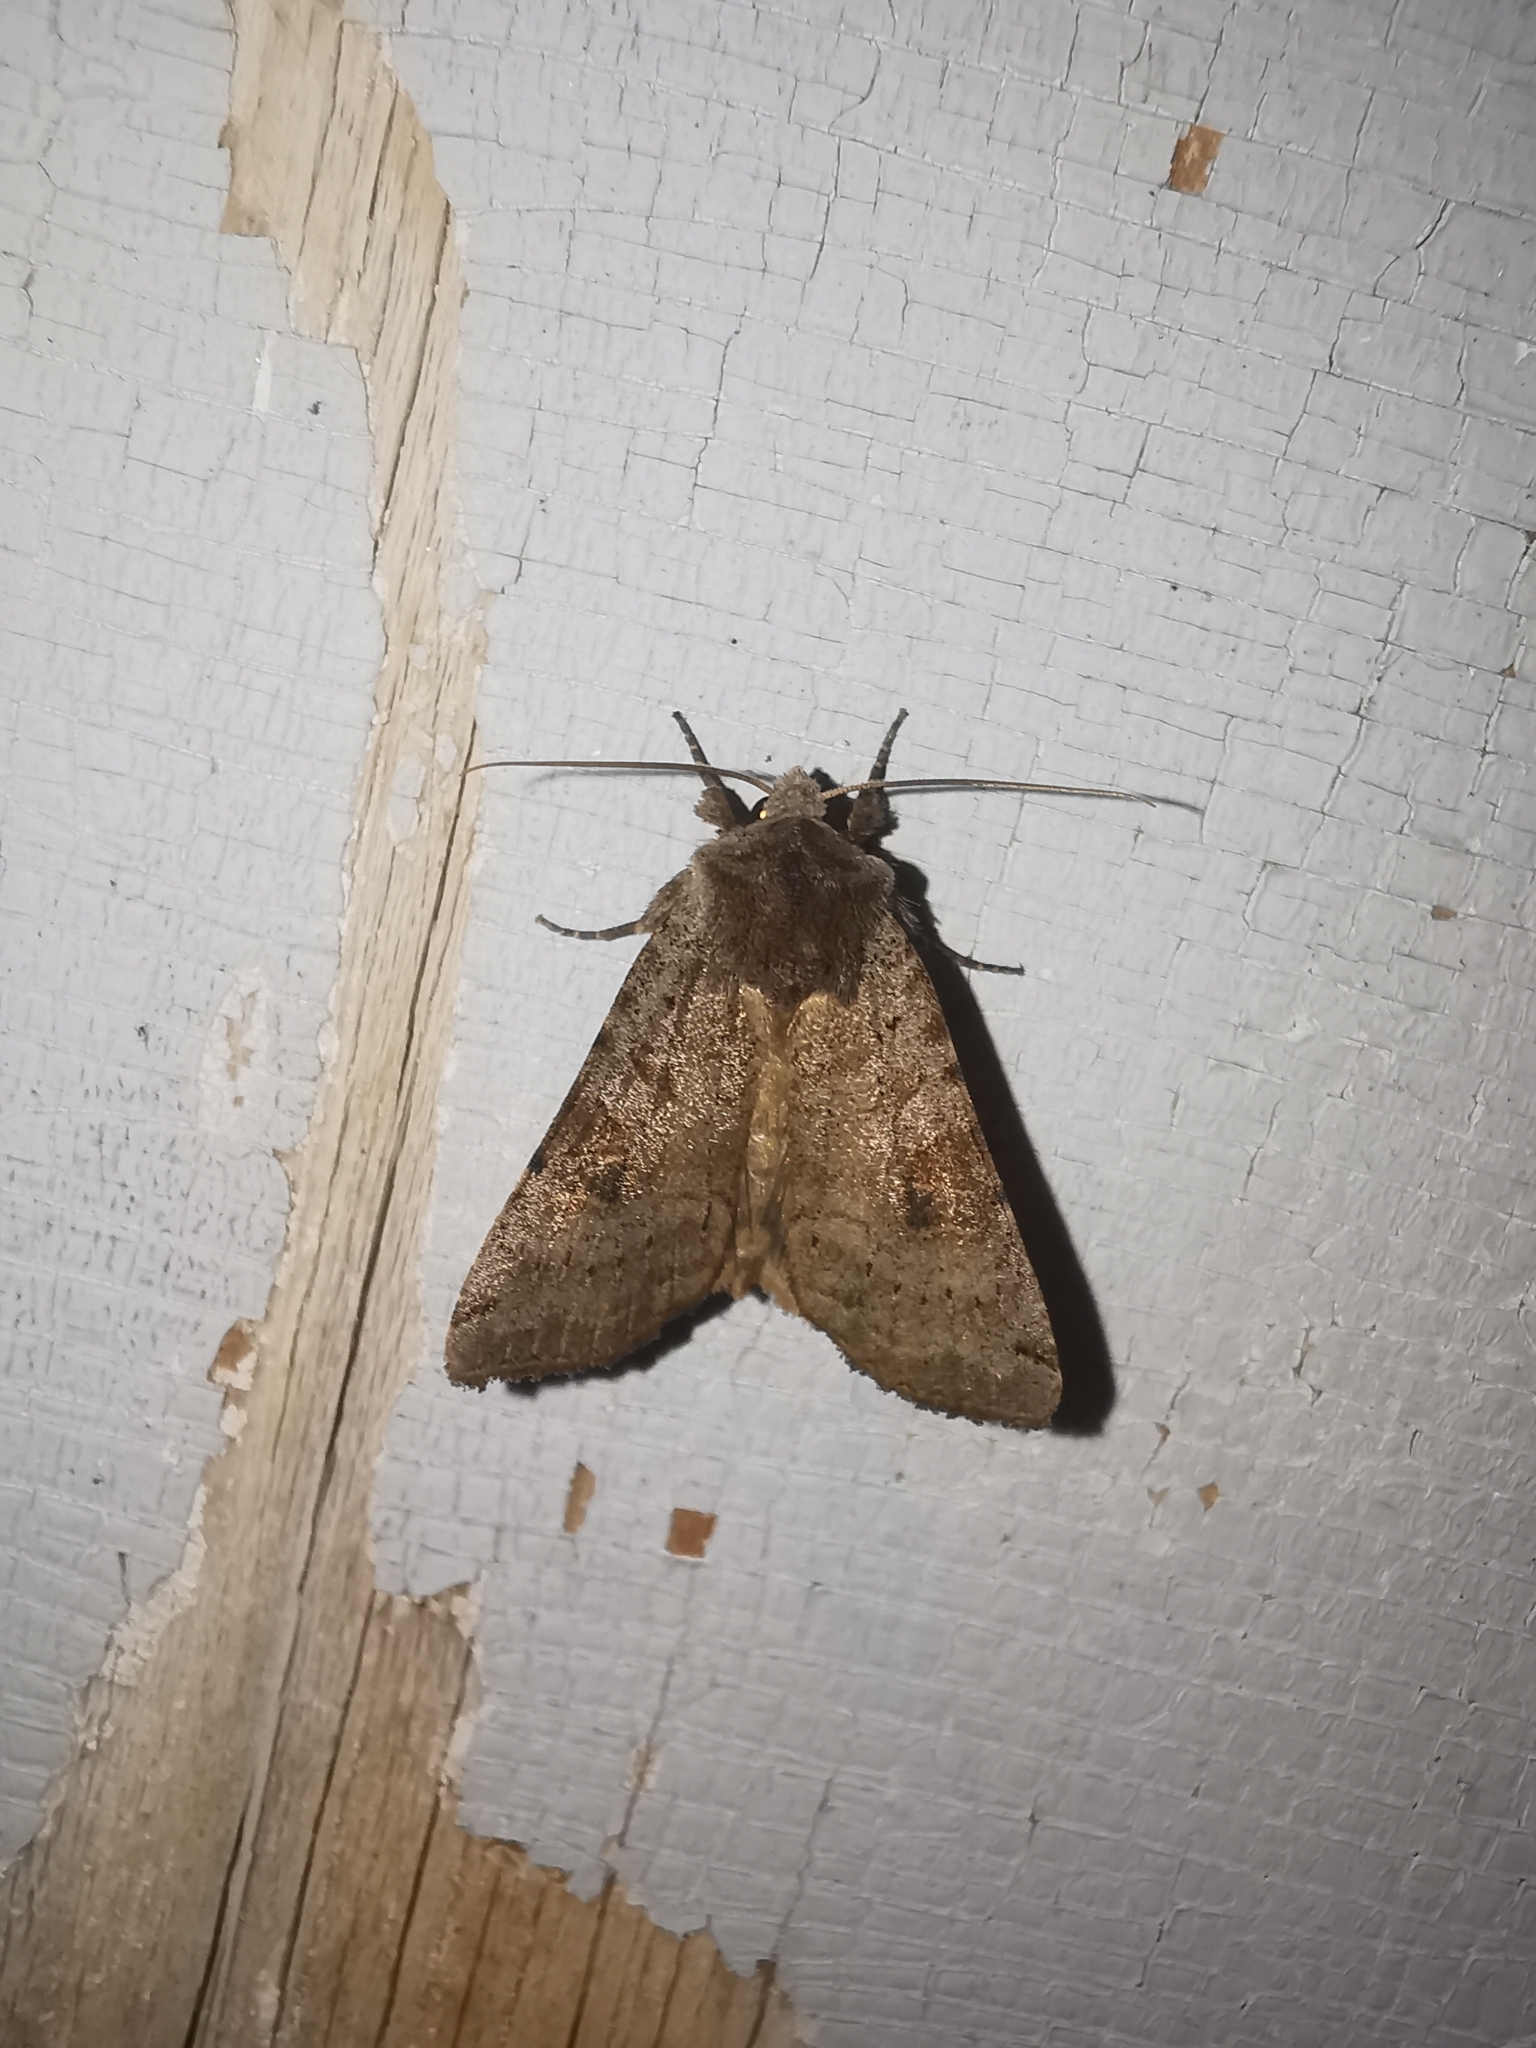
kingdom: Animalia
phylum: Arthropoda
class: Insecta
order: Lepidoptera
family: Noctuidae
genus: Xestia
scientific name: Xestia baja
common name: Dotted clay
